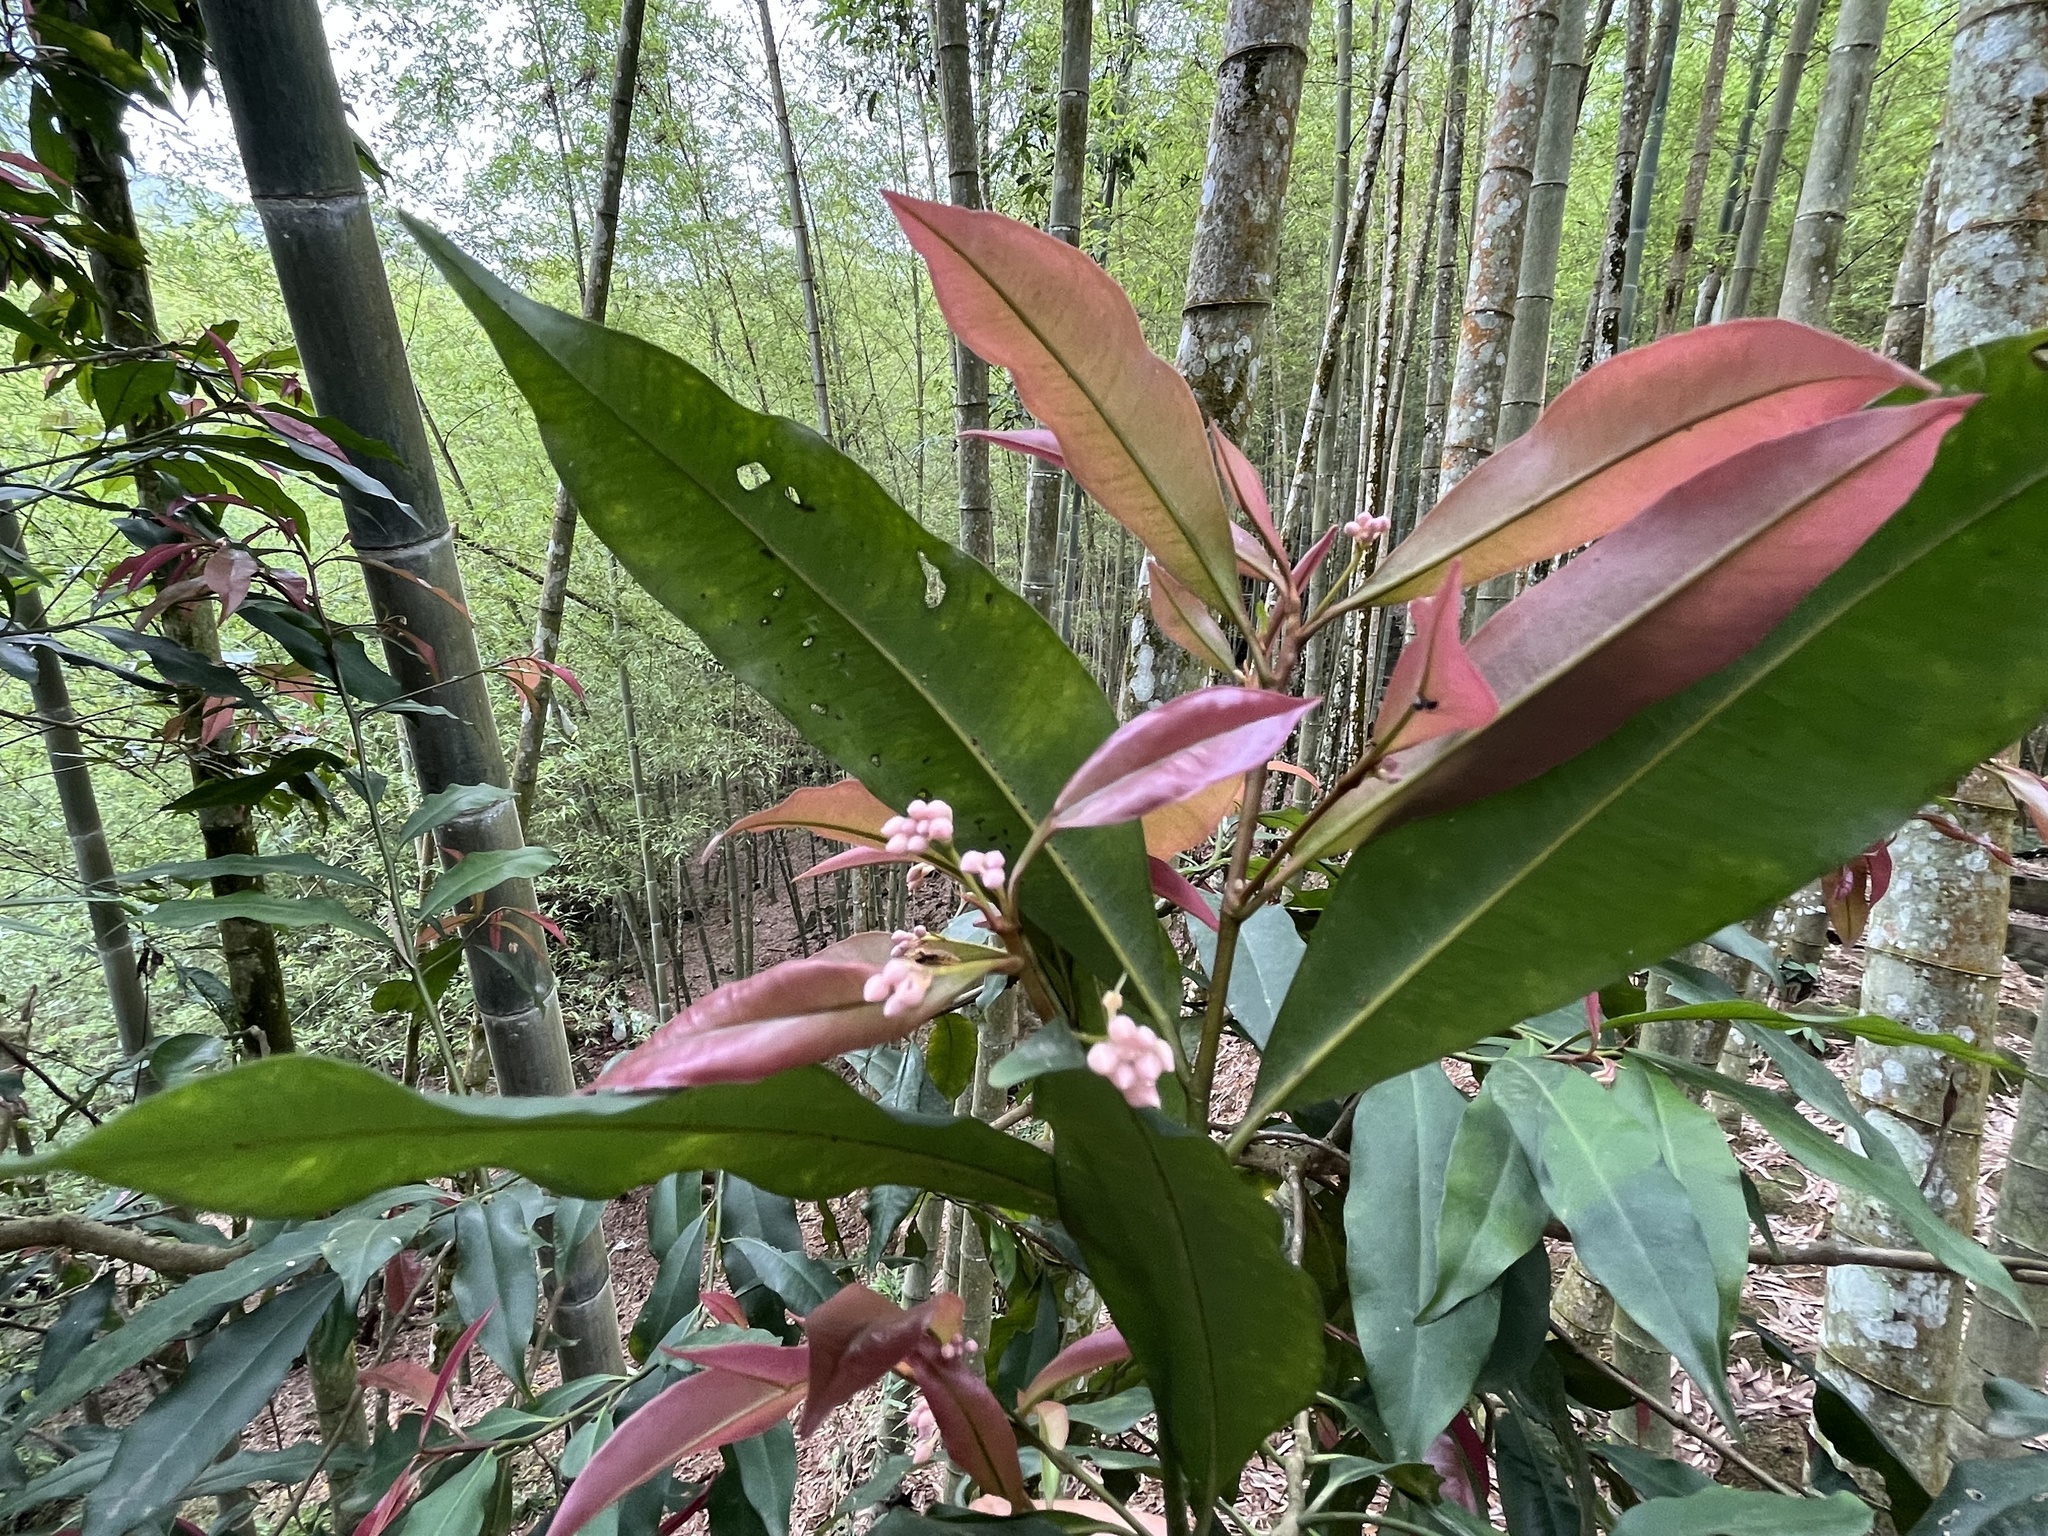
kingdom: Plantae
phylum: Tracheophyta
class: Magnoliopsida
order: Ericales
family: Primulaceae
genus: Ardisia
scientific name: Ardisia quinquegona
